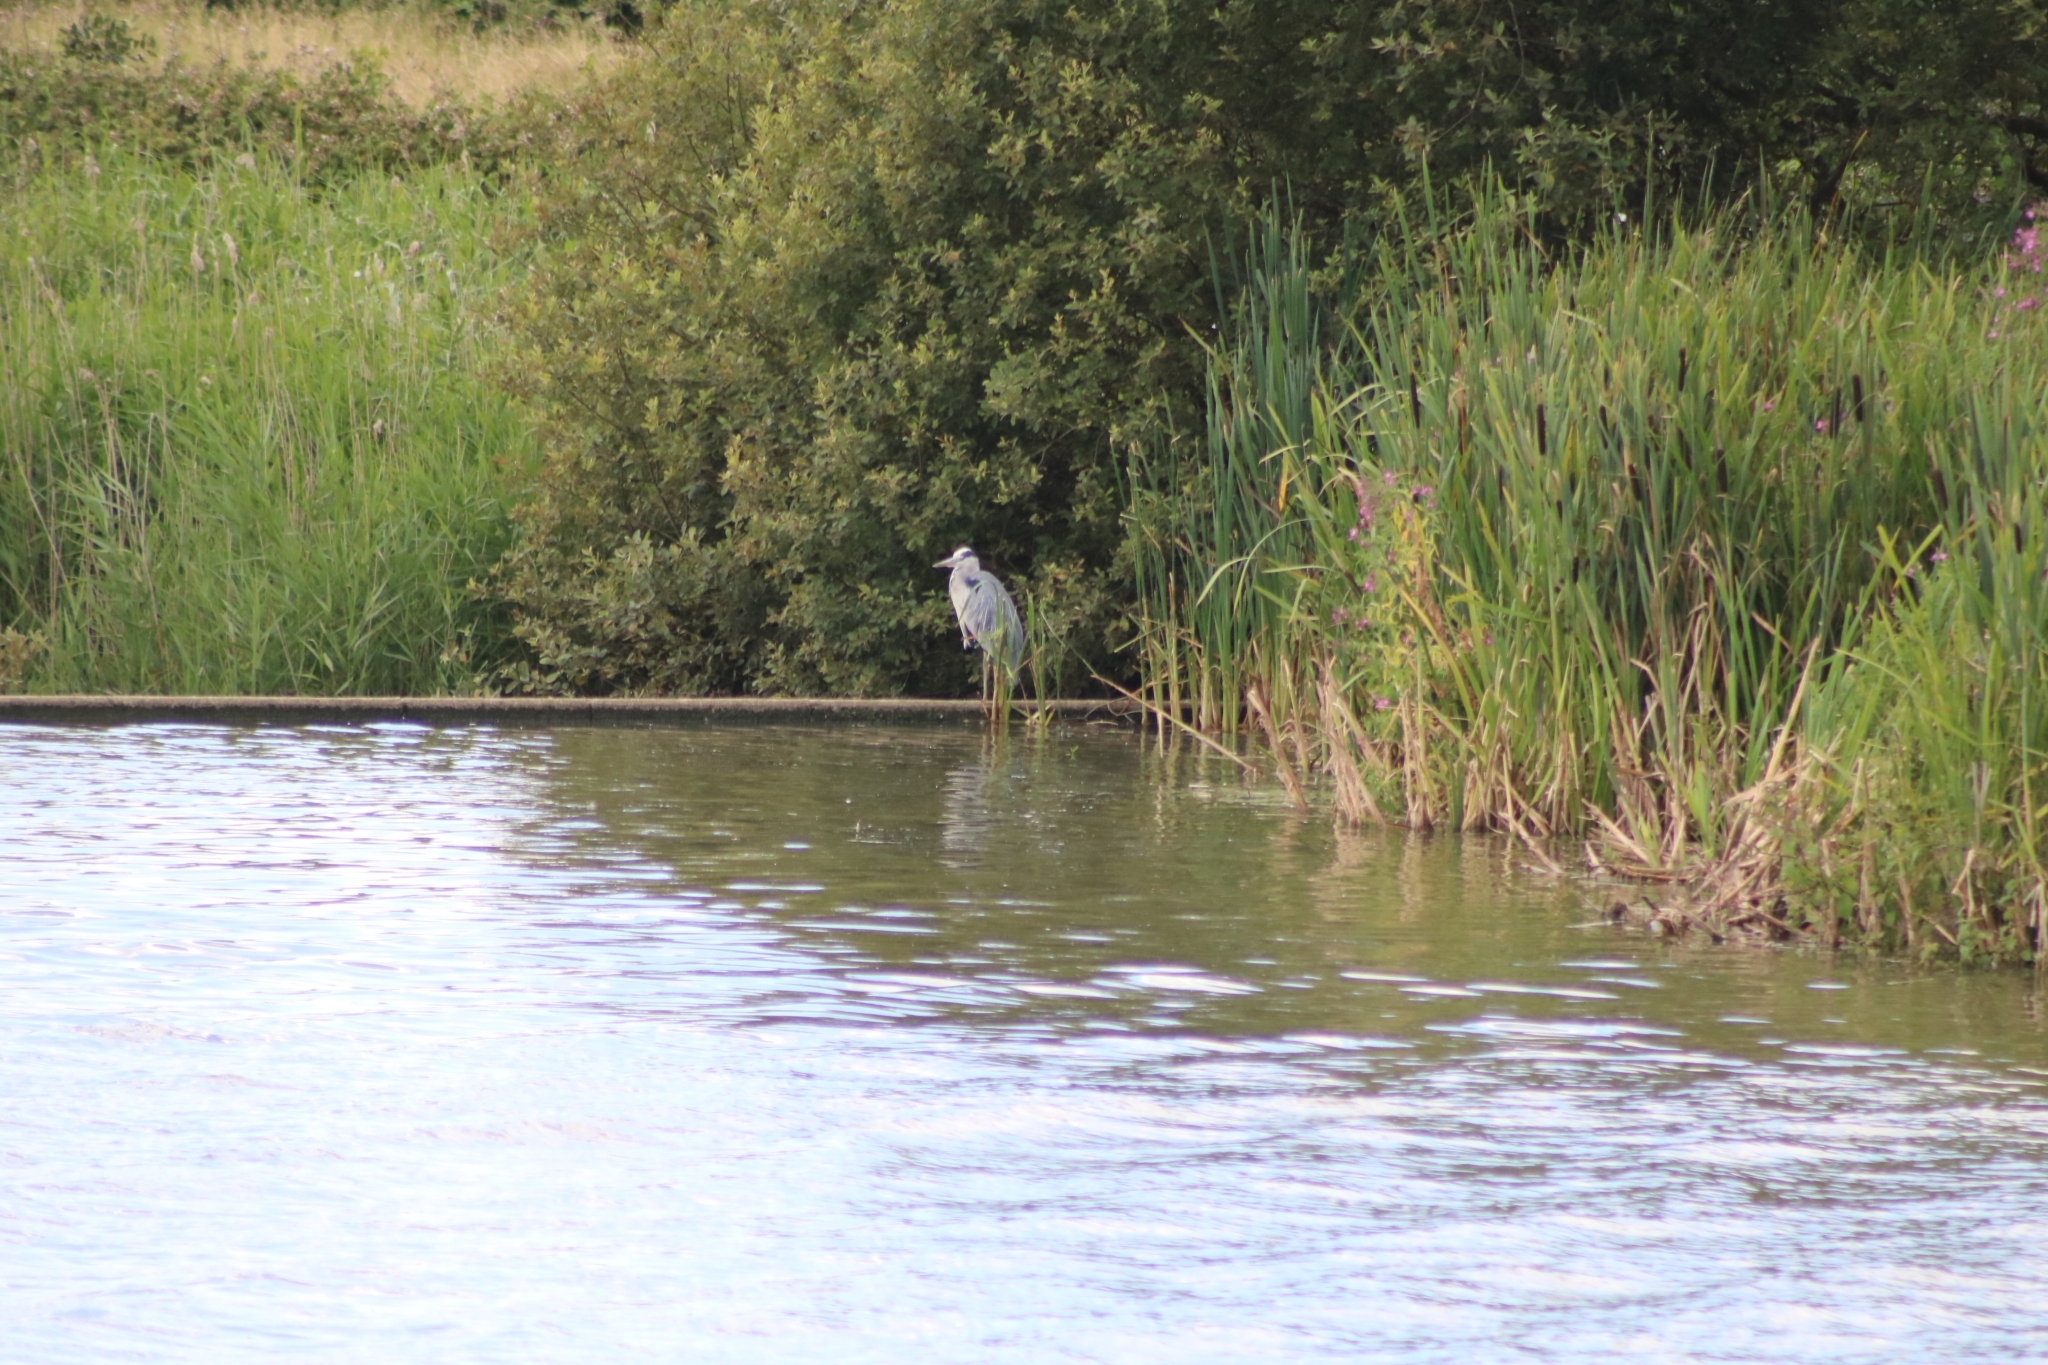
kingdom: Animalia
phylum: Chordata
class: Aves
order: Pelecaniformes
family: Ardeidae
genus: Ardea
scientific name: Ardea cinerea
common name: Grey heron
